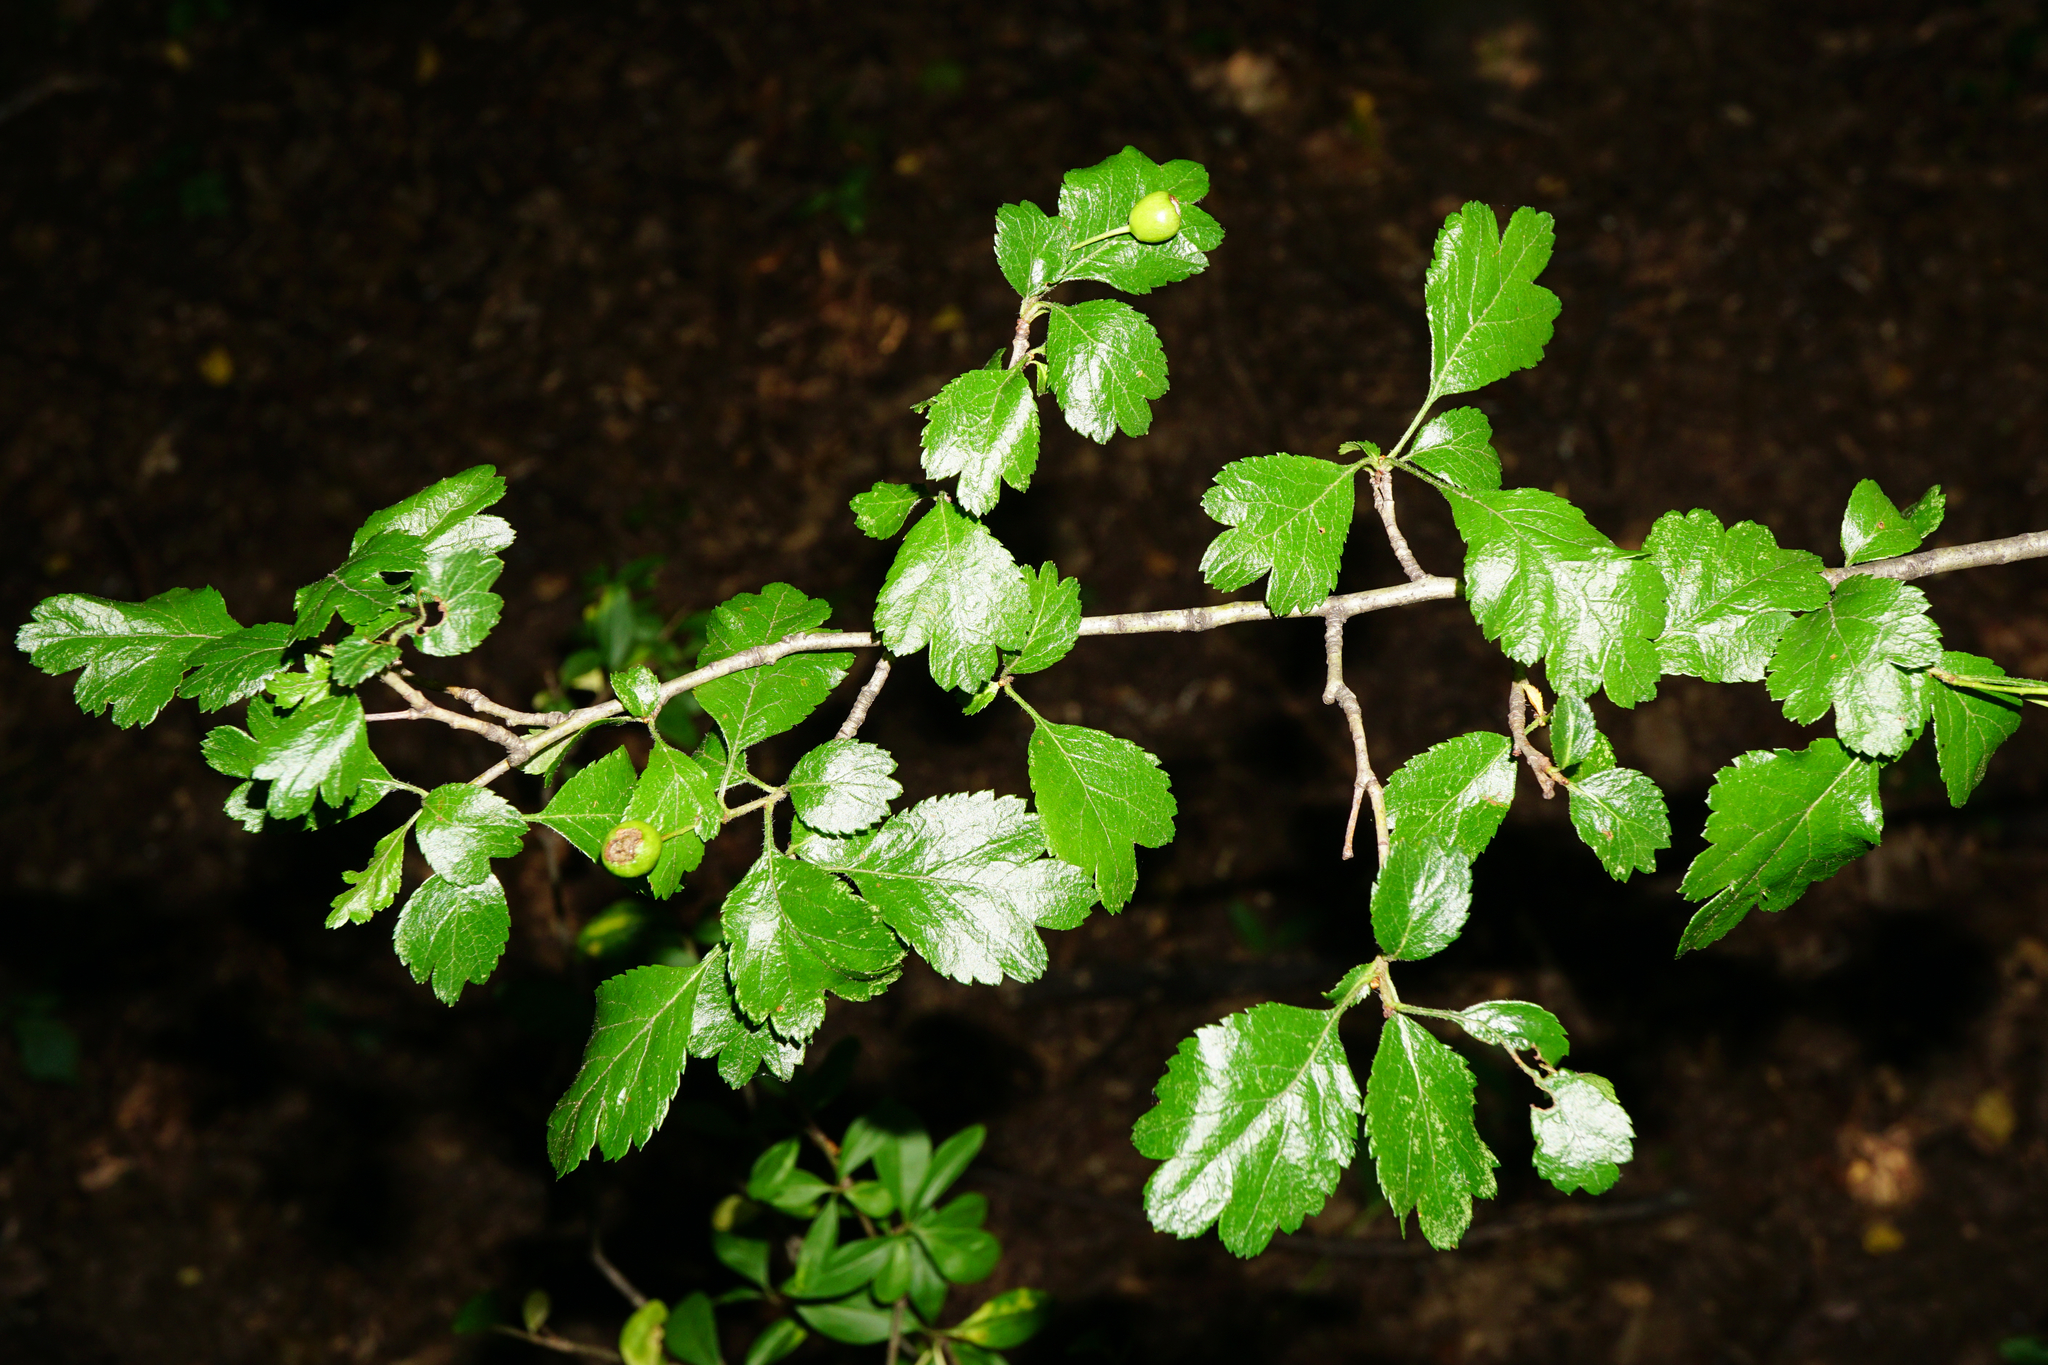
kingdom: Plantae
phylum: Tracheophyta
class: Magnoliopsida
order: Rosales
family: Rosaceae
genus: Crataegus
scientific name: Crataegus laevigata
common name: Midland hawthorn
